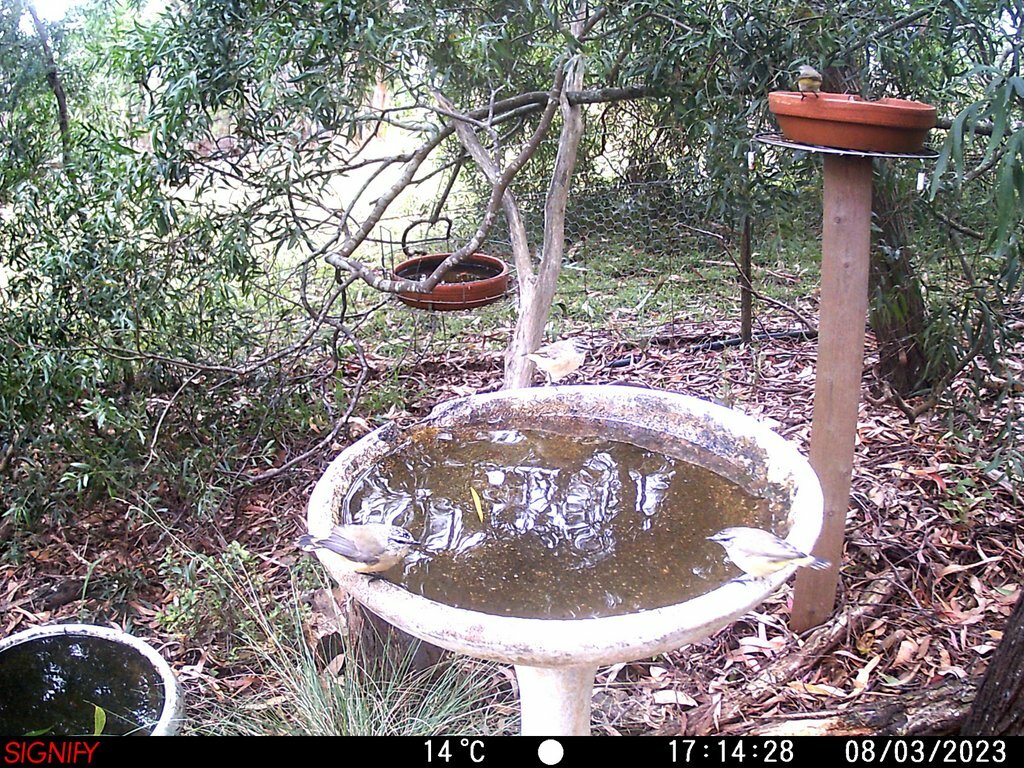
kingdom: Animalia
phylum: Chordata
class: Aves
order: Passeriformes
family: Acanthizidae
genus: Acanthiza
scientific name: Acanthiza chrysorrhoa
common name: Yellow-rumped thornbill
